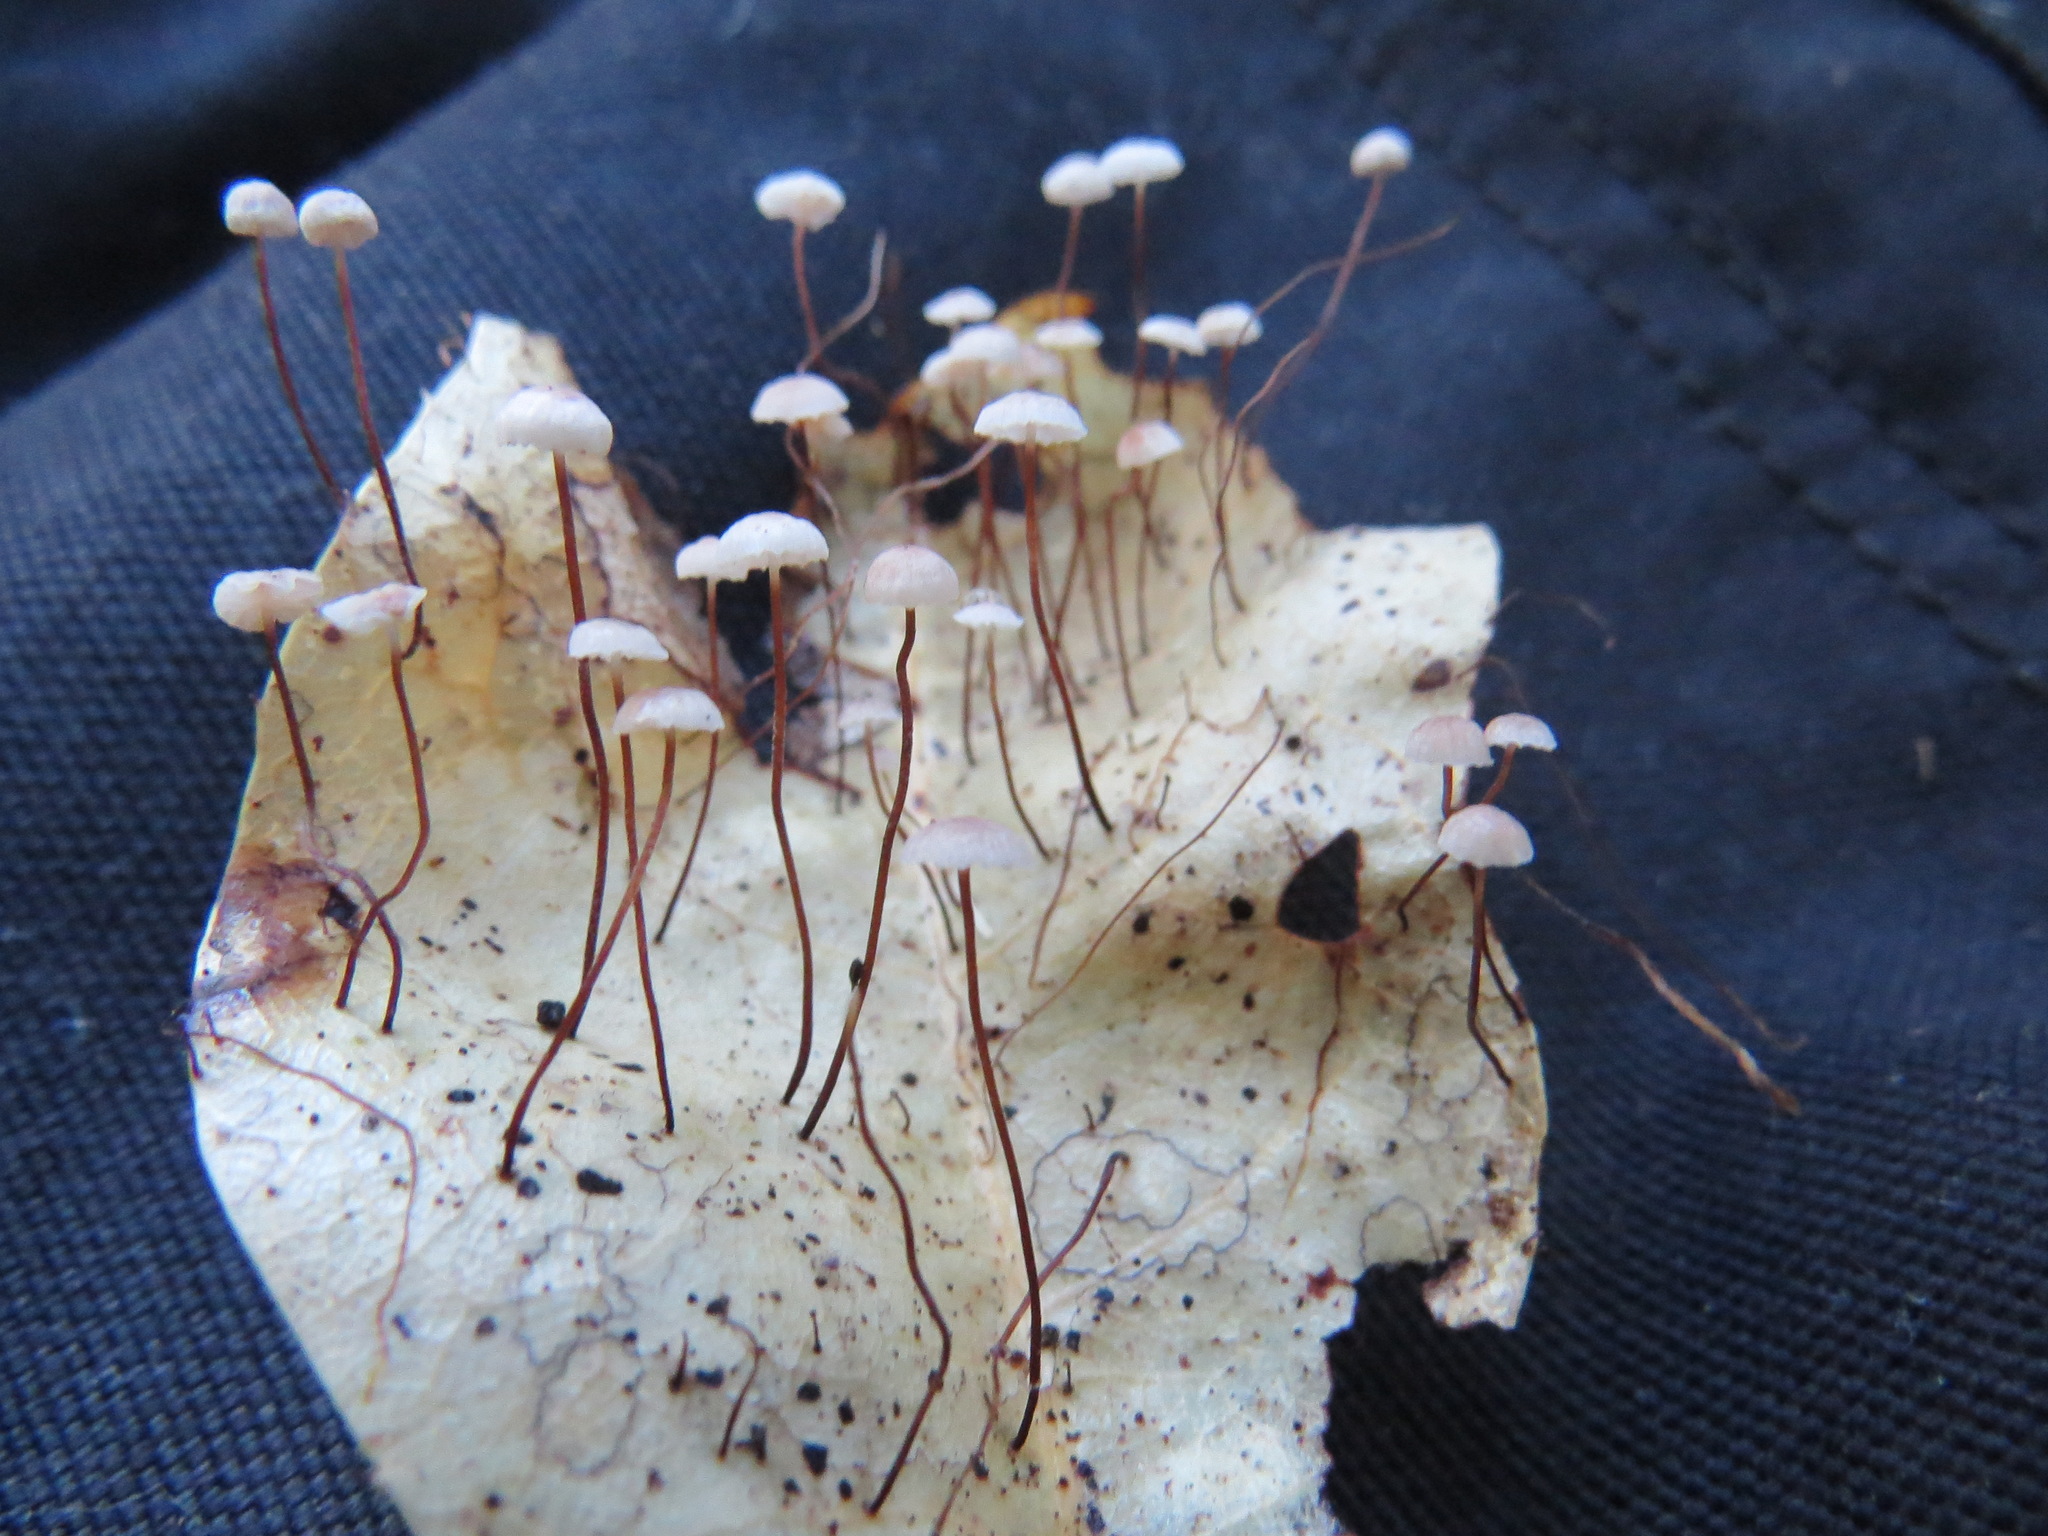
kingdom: Fungi
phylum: Basidiomycota
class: Agaricomycetes
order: Agaricales
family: Omphalotaceae
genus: Collybiopsis
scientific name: Collybiopsis quercophila
